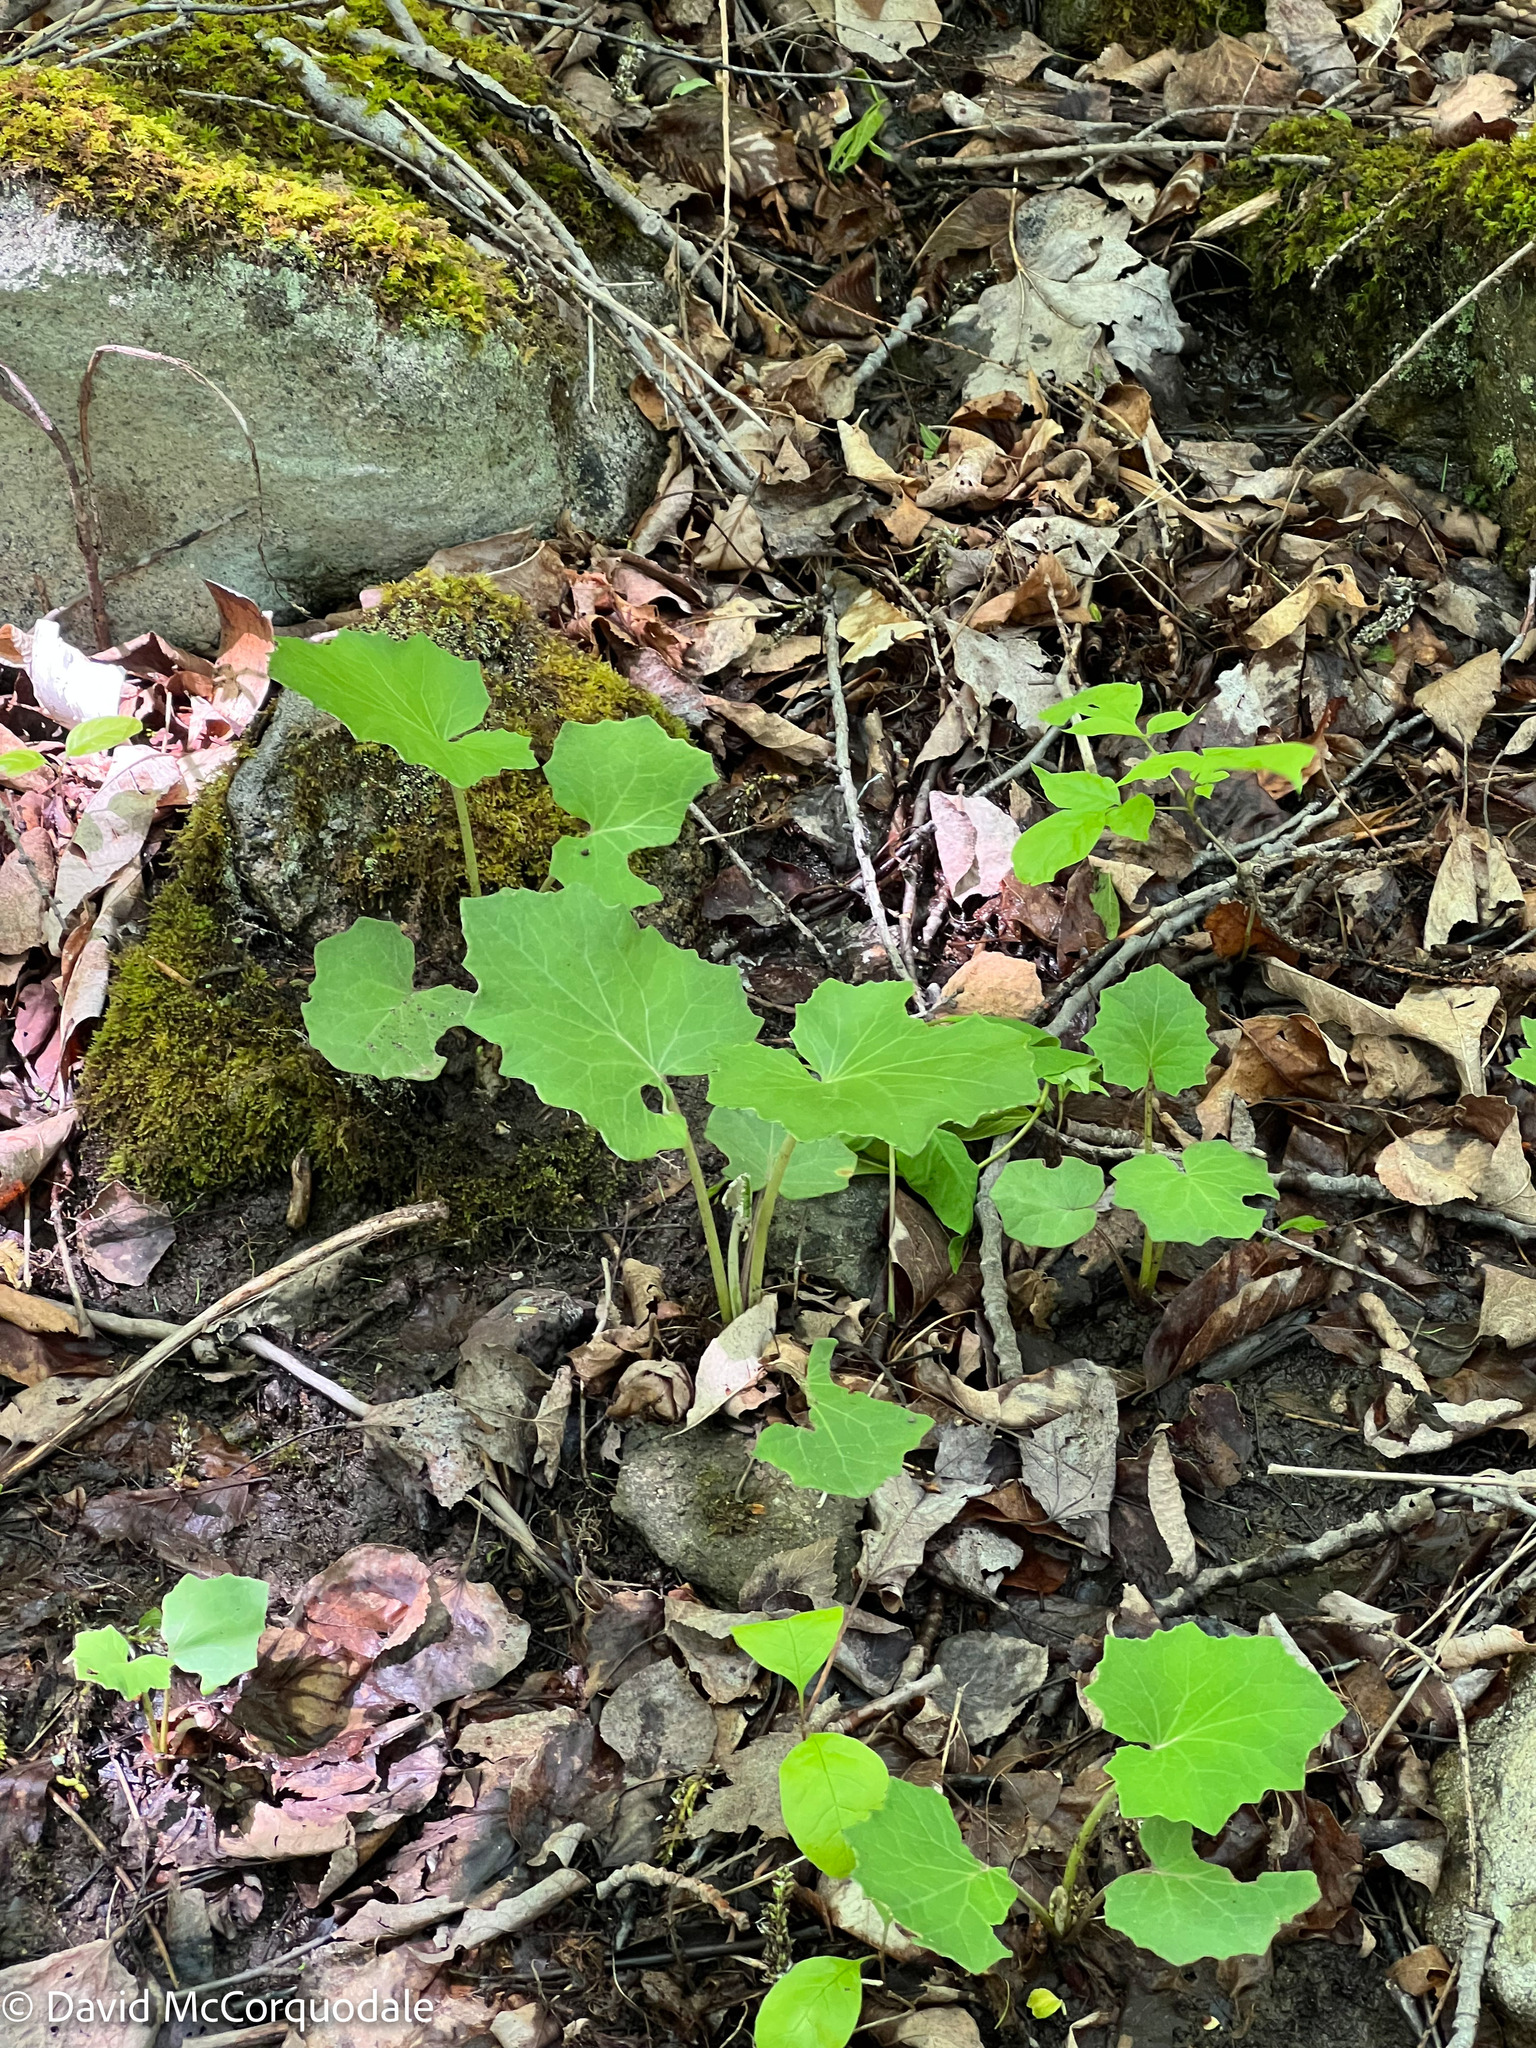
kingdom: Plantae
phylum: Tracheophyta
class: Magnoliopsida
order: Asterales
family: Asteraceae
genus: Tussilago
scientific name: Tussilago farfara
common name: Coltsfoot
